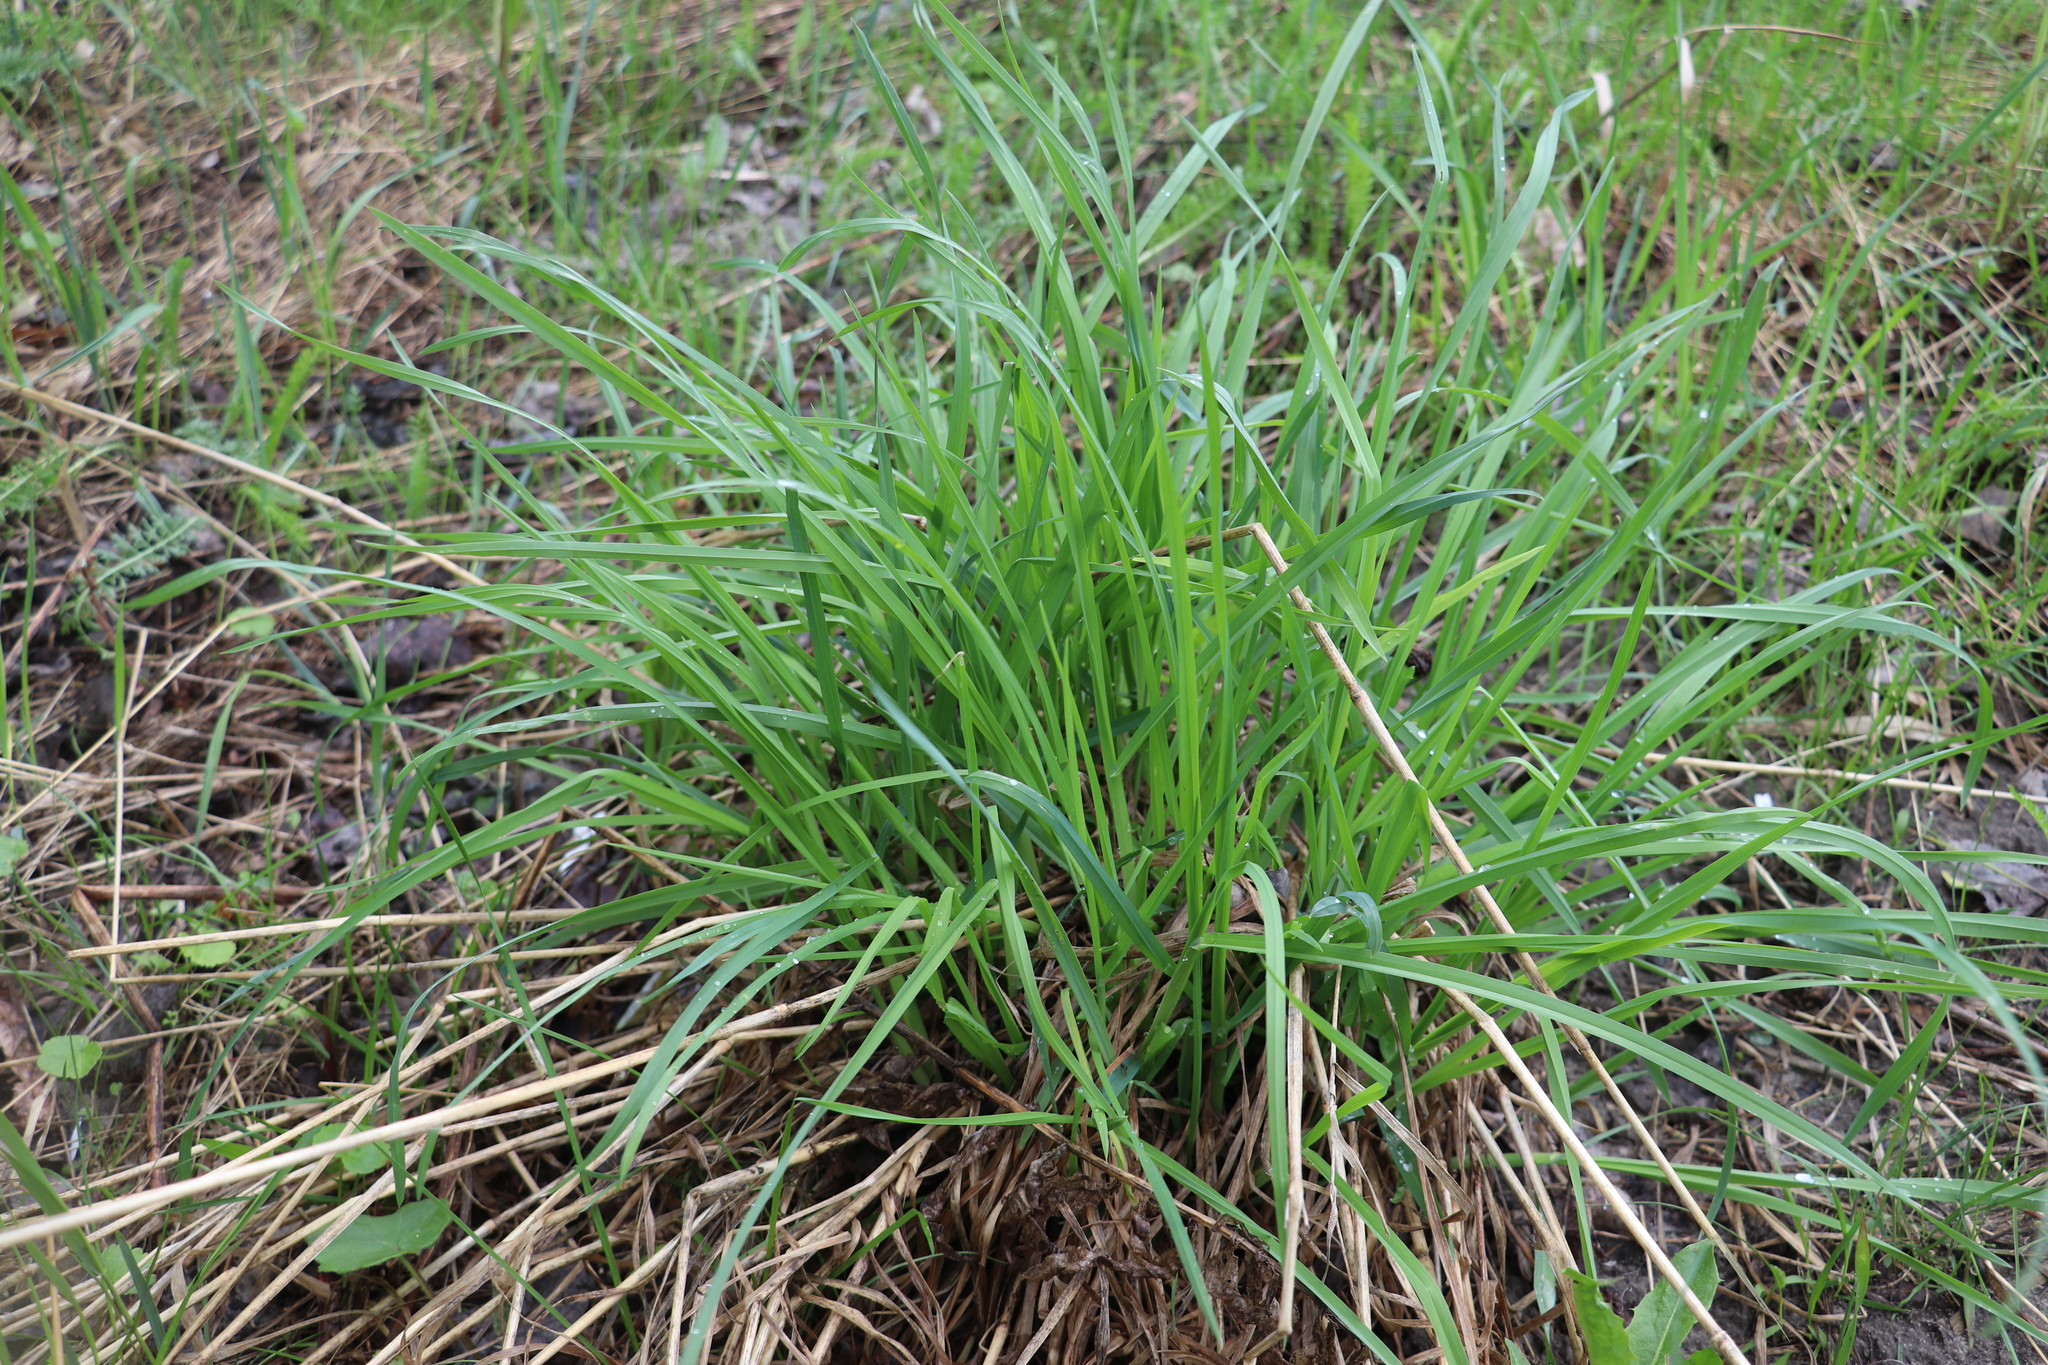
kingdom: Plantae
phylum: Tracheophyta
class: Liliopsida
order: Poales
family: Poaceae
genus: Dactylis
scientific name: Dactylis glomerata
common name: Orchardgrass
